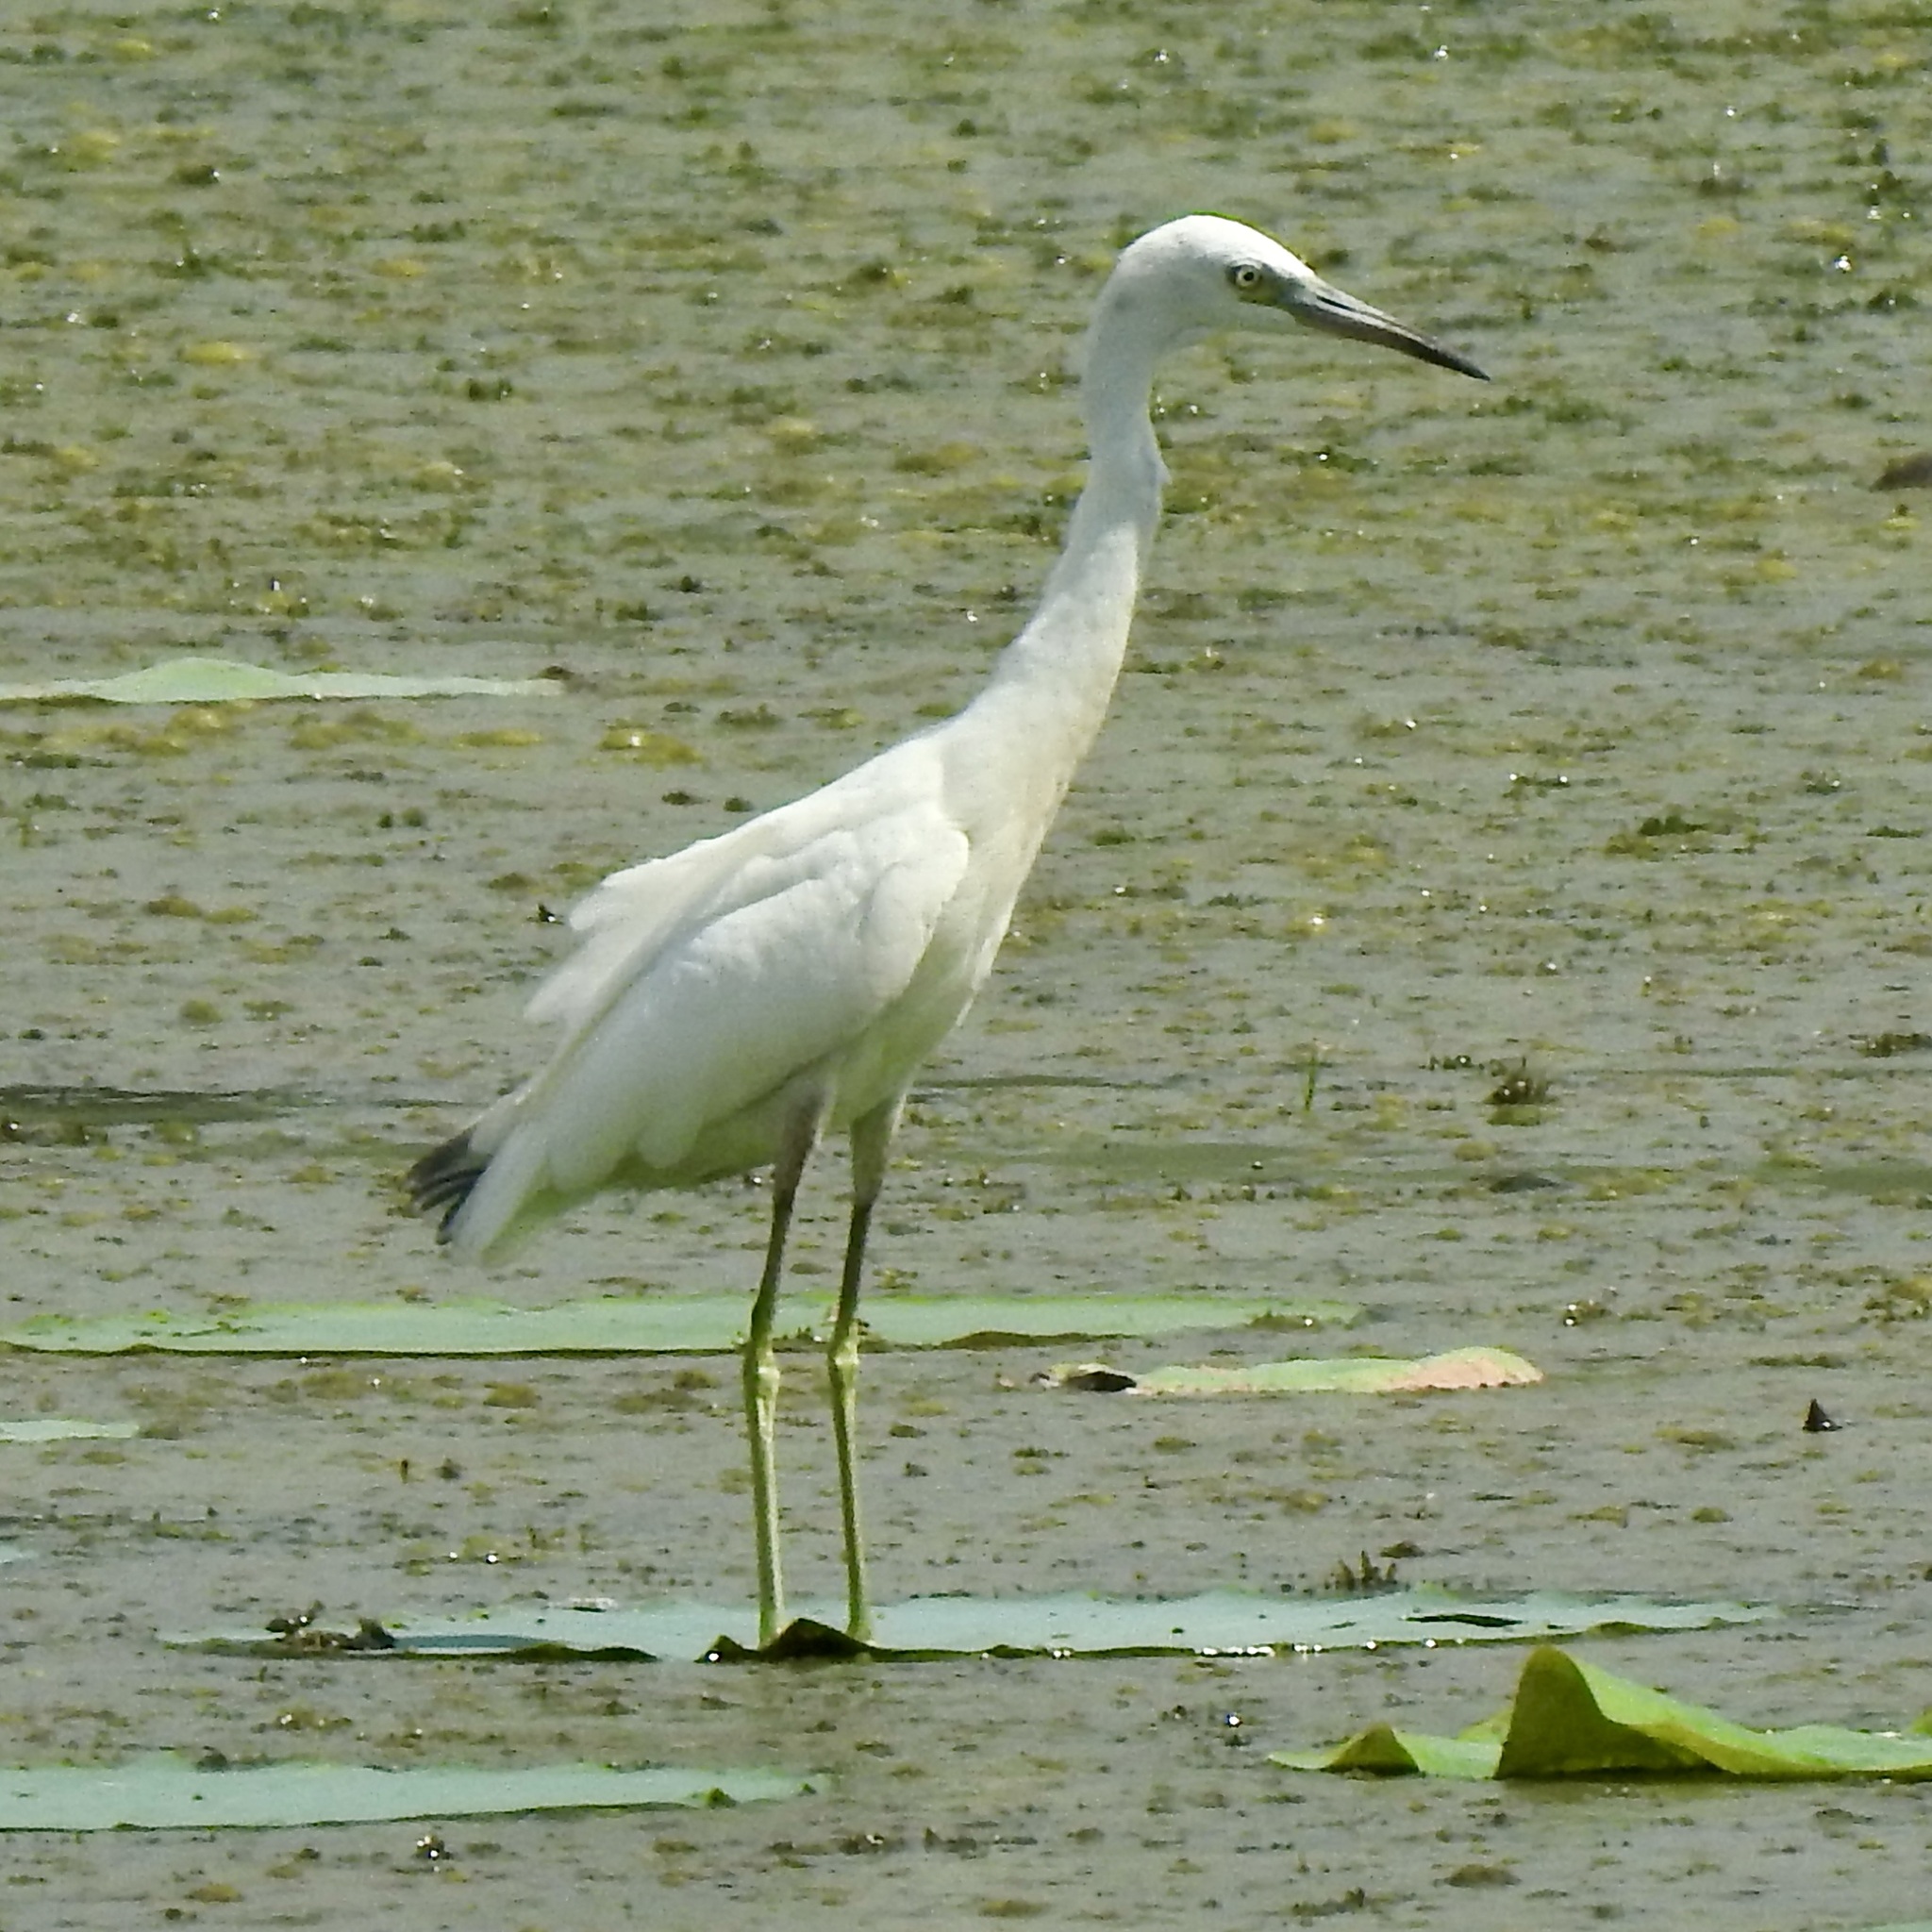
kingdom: Animalia
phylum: Chordata
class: Aves
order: Pelecaniformes
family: Ardeidae
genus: Egretta
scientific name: Egretta caerulea
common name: Little blue heron
